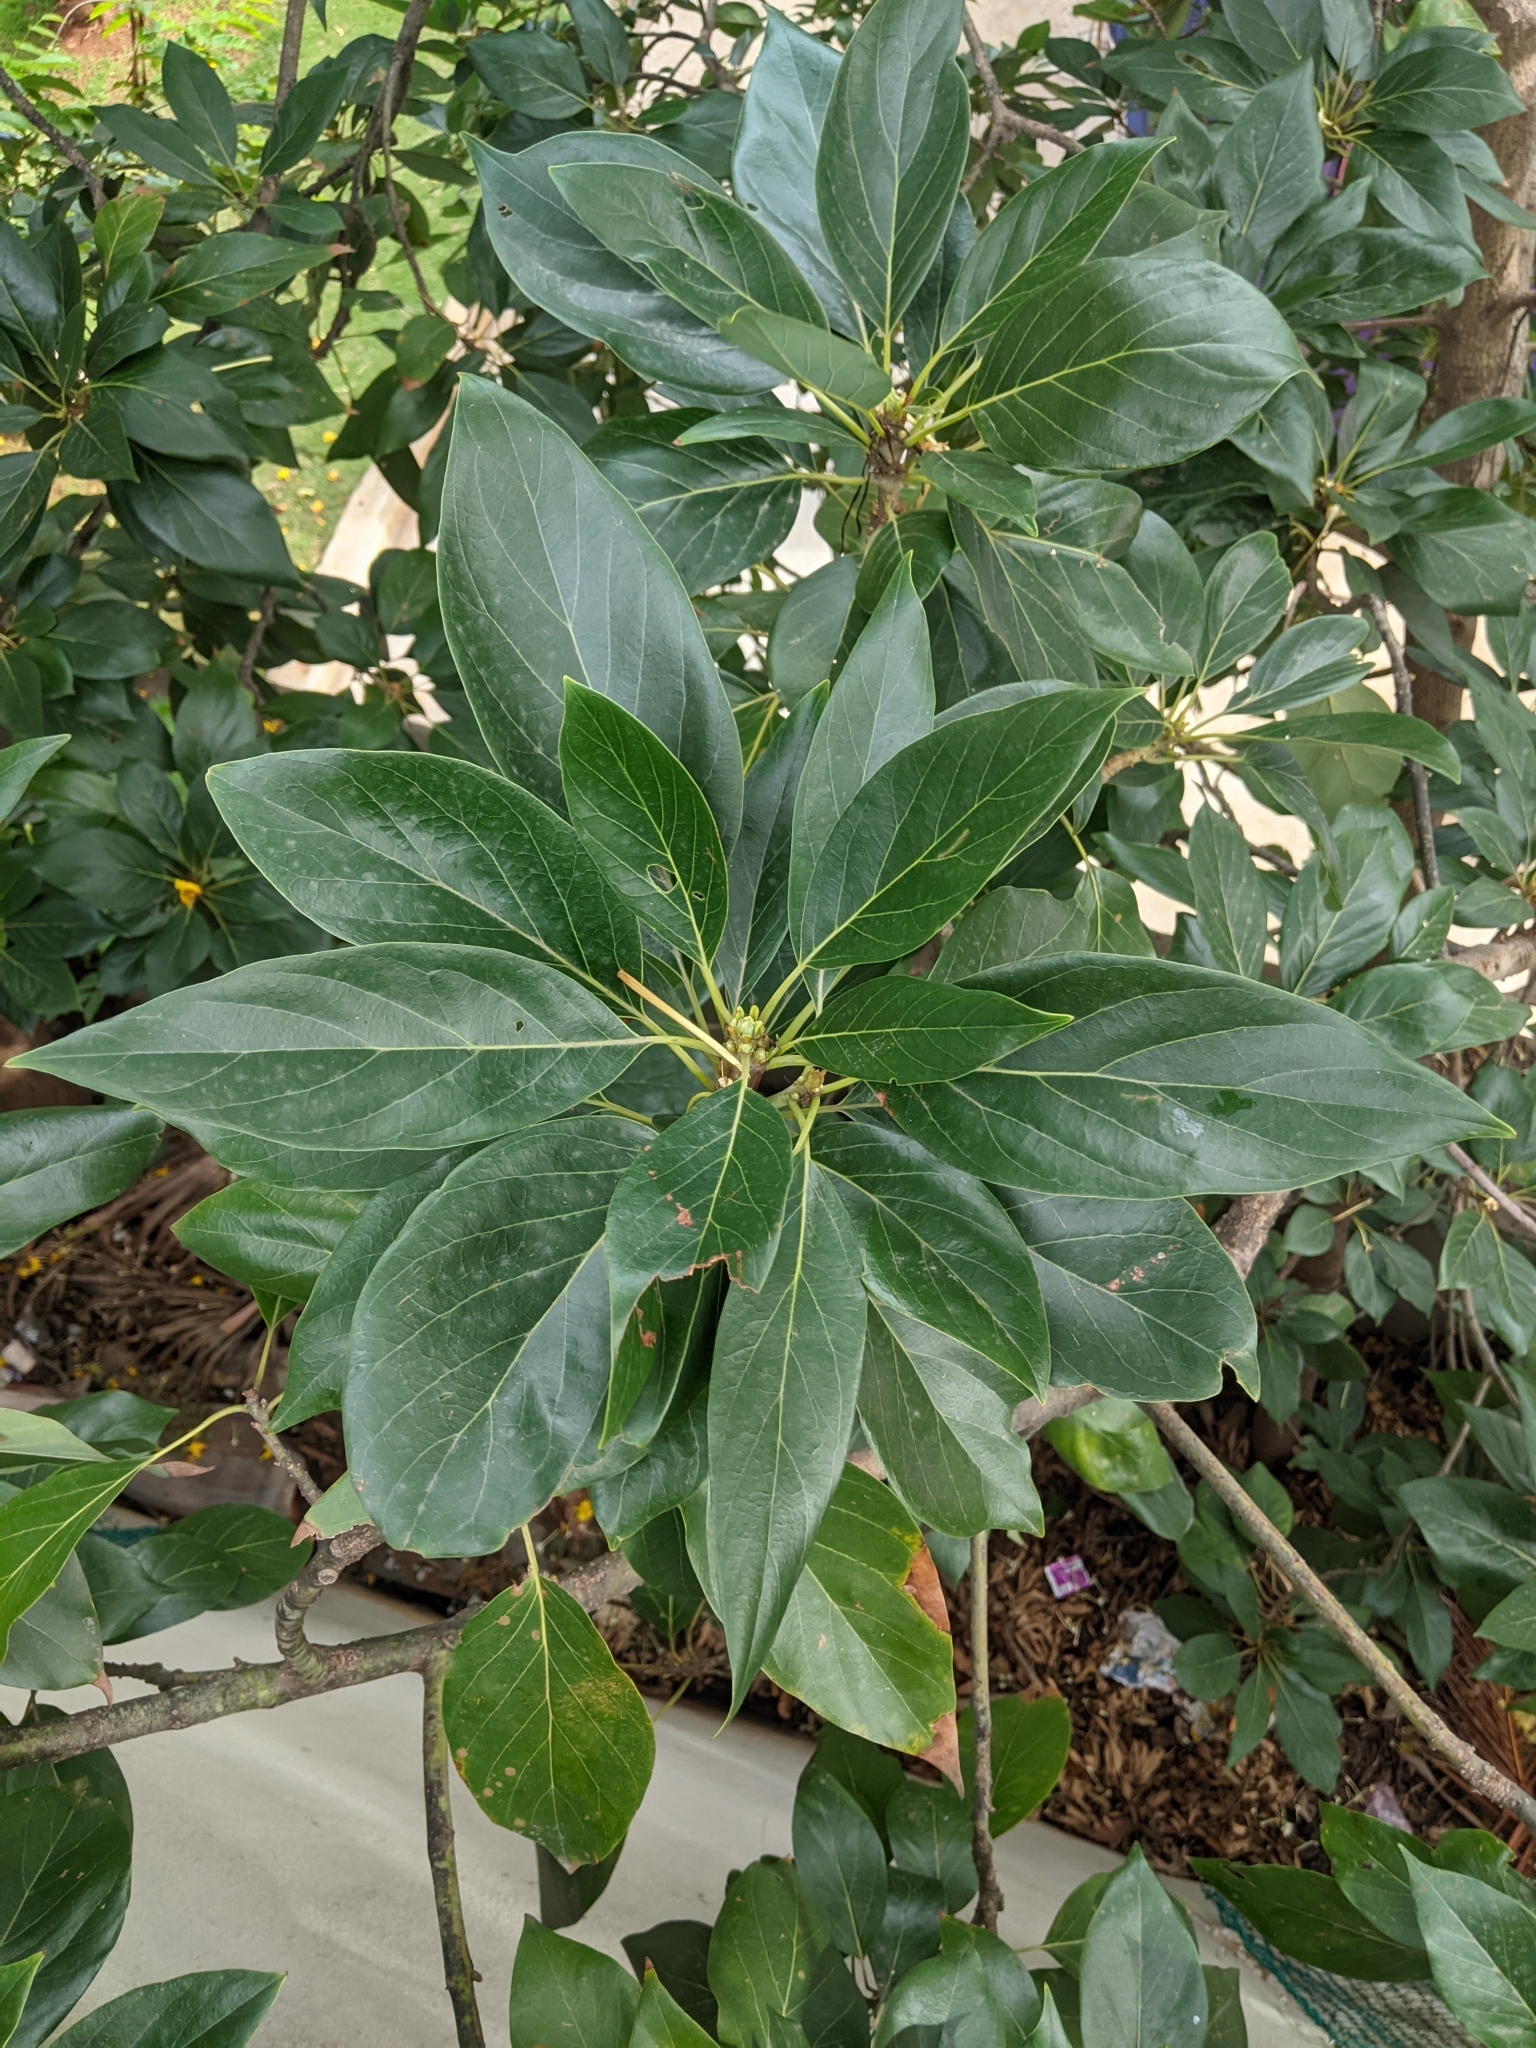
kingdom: Plantae
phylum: Tracheophyta
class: Magnoliopsida
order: Laurales
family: Lauraceae
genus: Persea
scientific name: Persea americana
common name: Avocado
